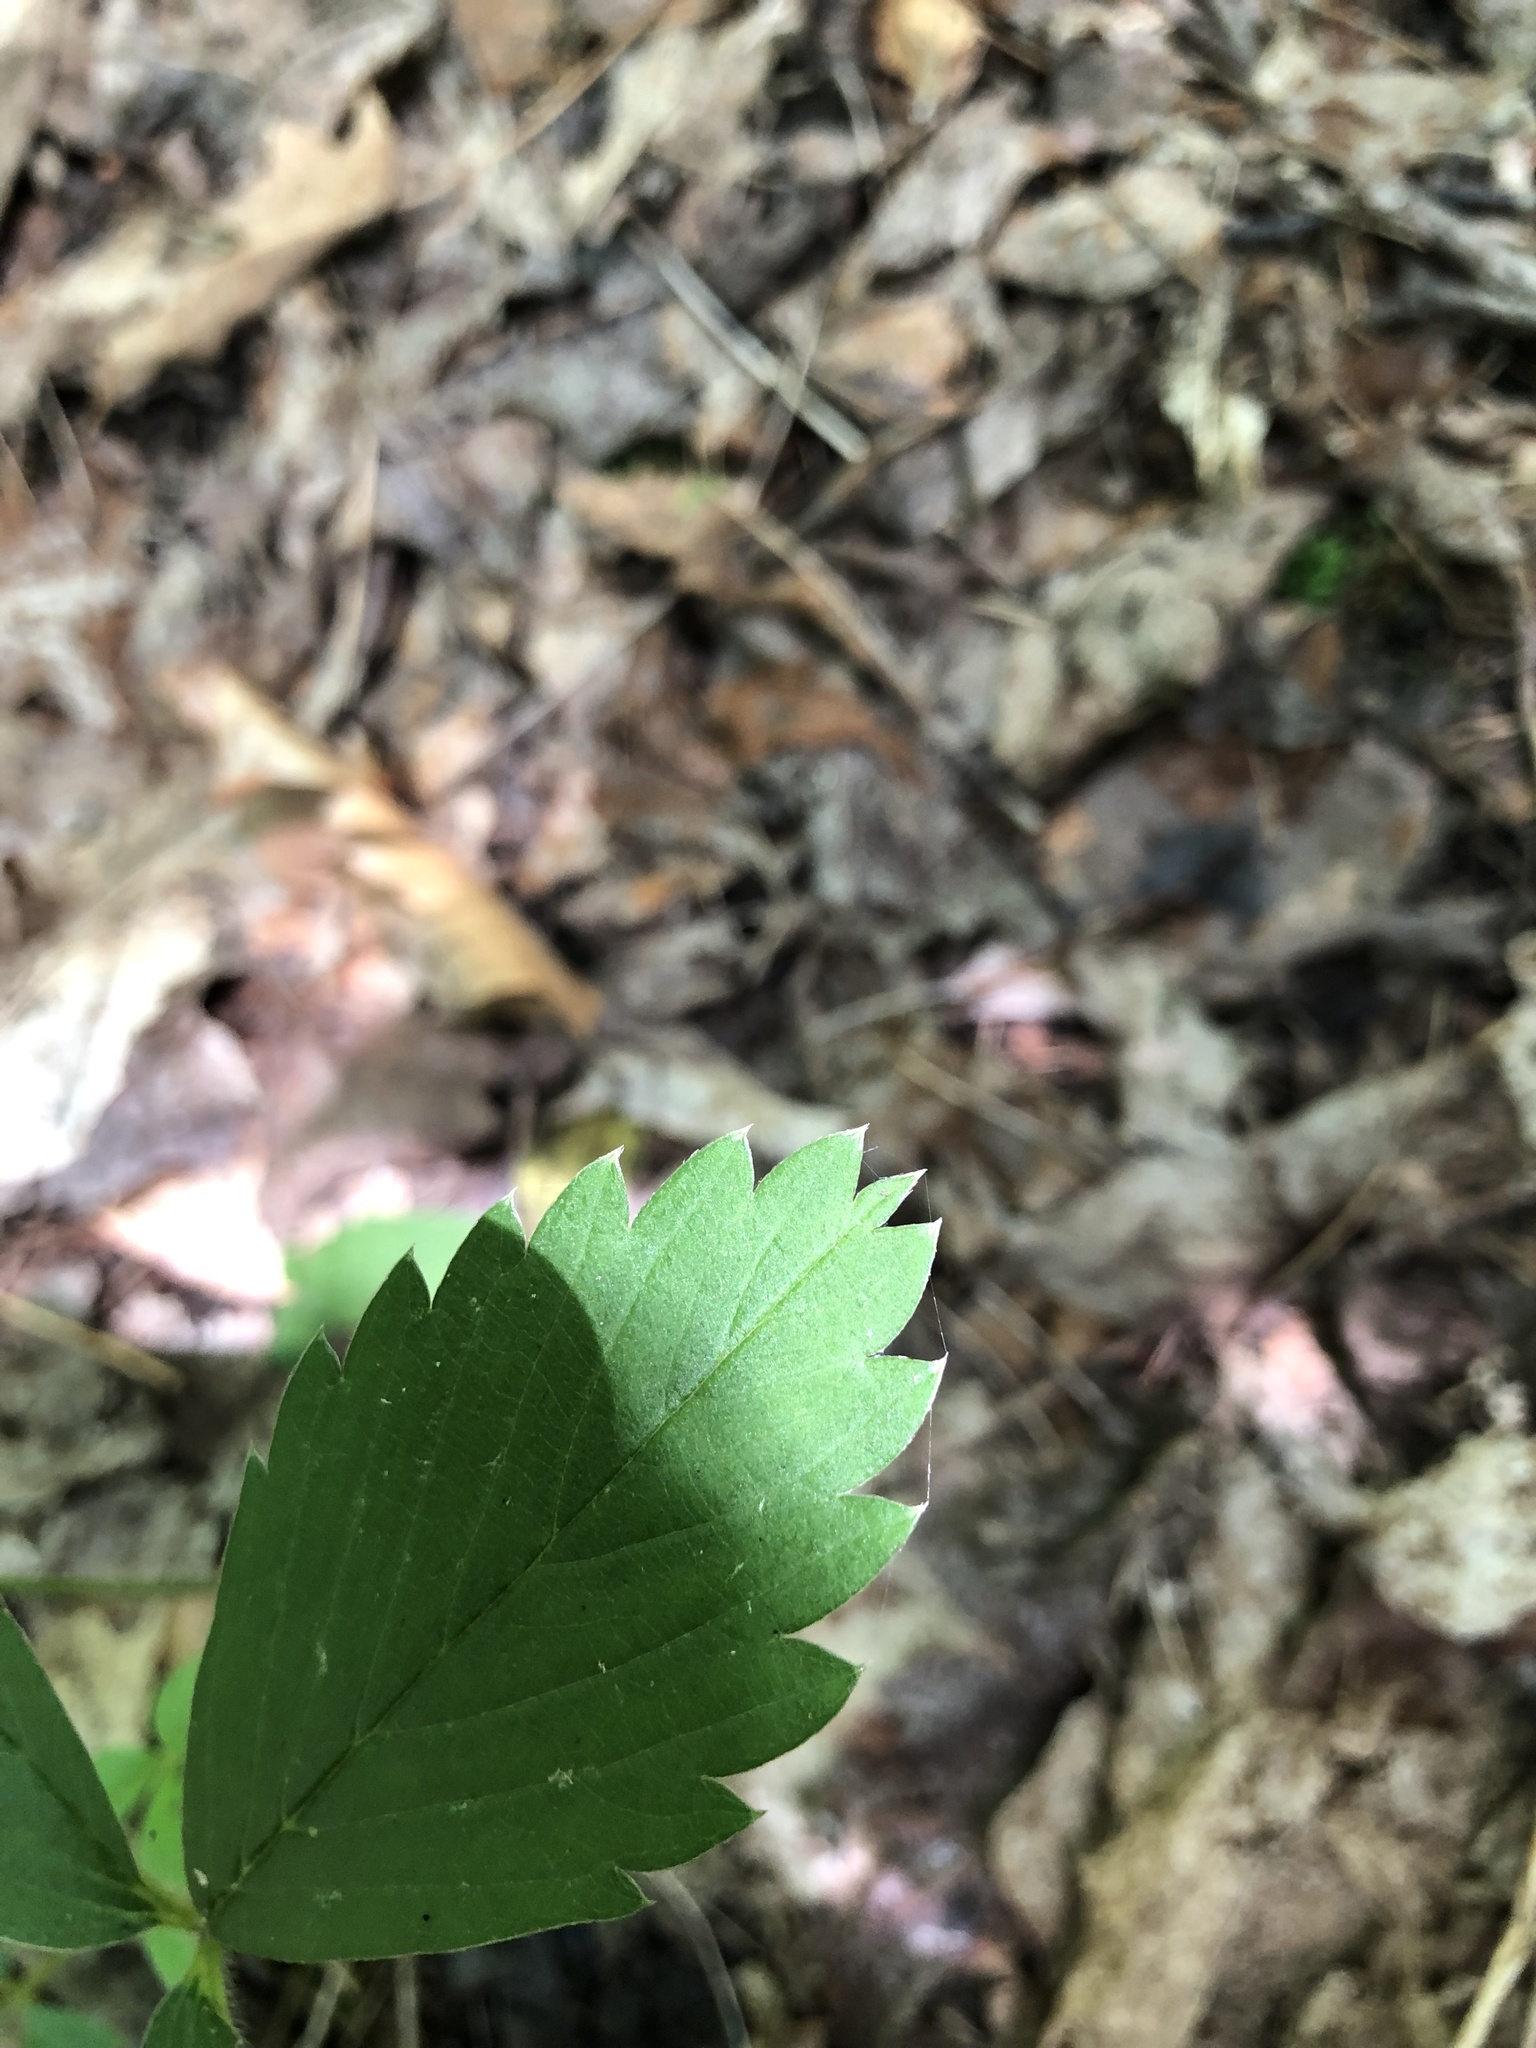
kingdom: Plantae
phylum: Tracheophyta
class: Magnoliopsida
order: Rosales
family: Rosaceae
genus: Fragaria
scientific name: Fragaria virginiana
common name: Thickleaved wild strawberry
